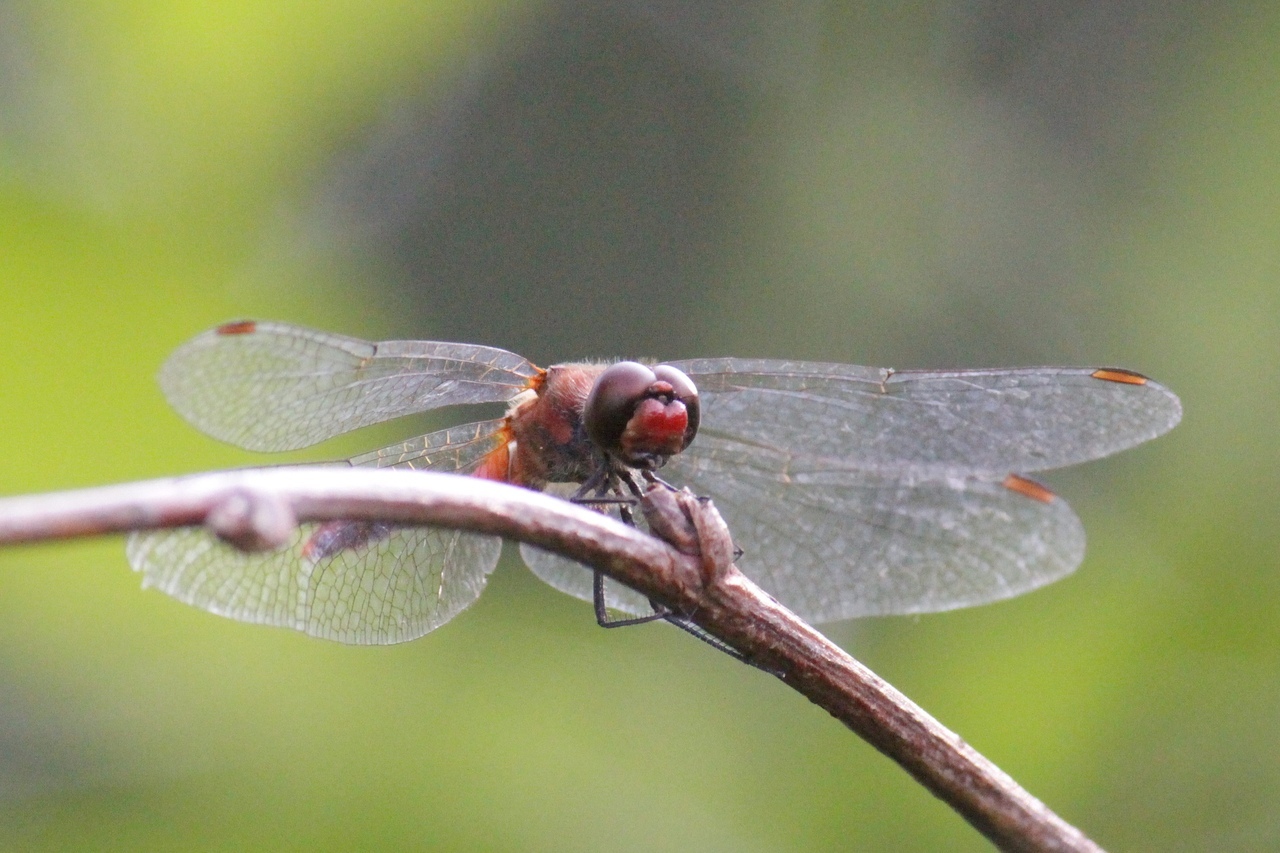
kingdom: Animalia
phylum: Arthropoda
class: Insecta
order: Odonata
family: Libellulidae
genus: Sympetrum
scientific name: Sympetrum sanguineum
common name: Ruddy darter
